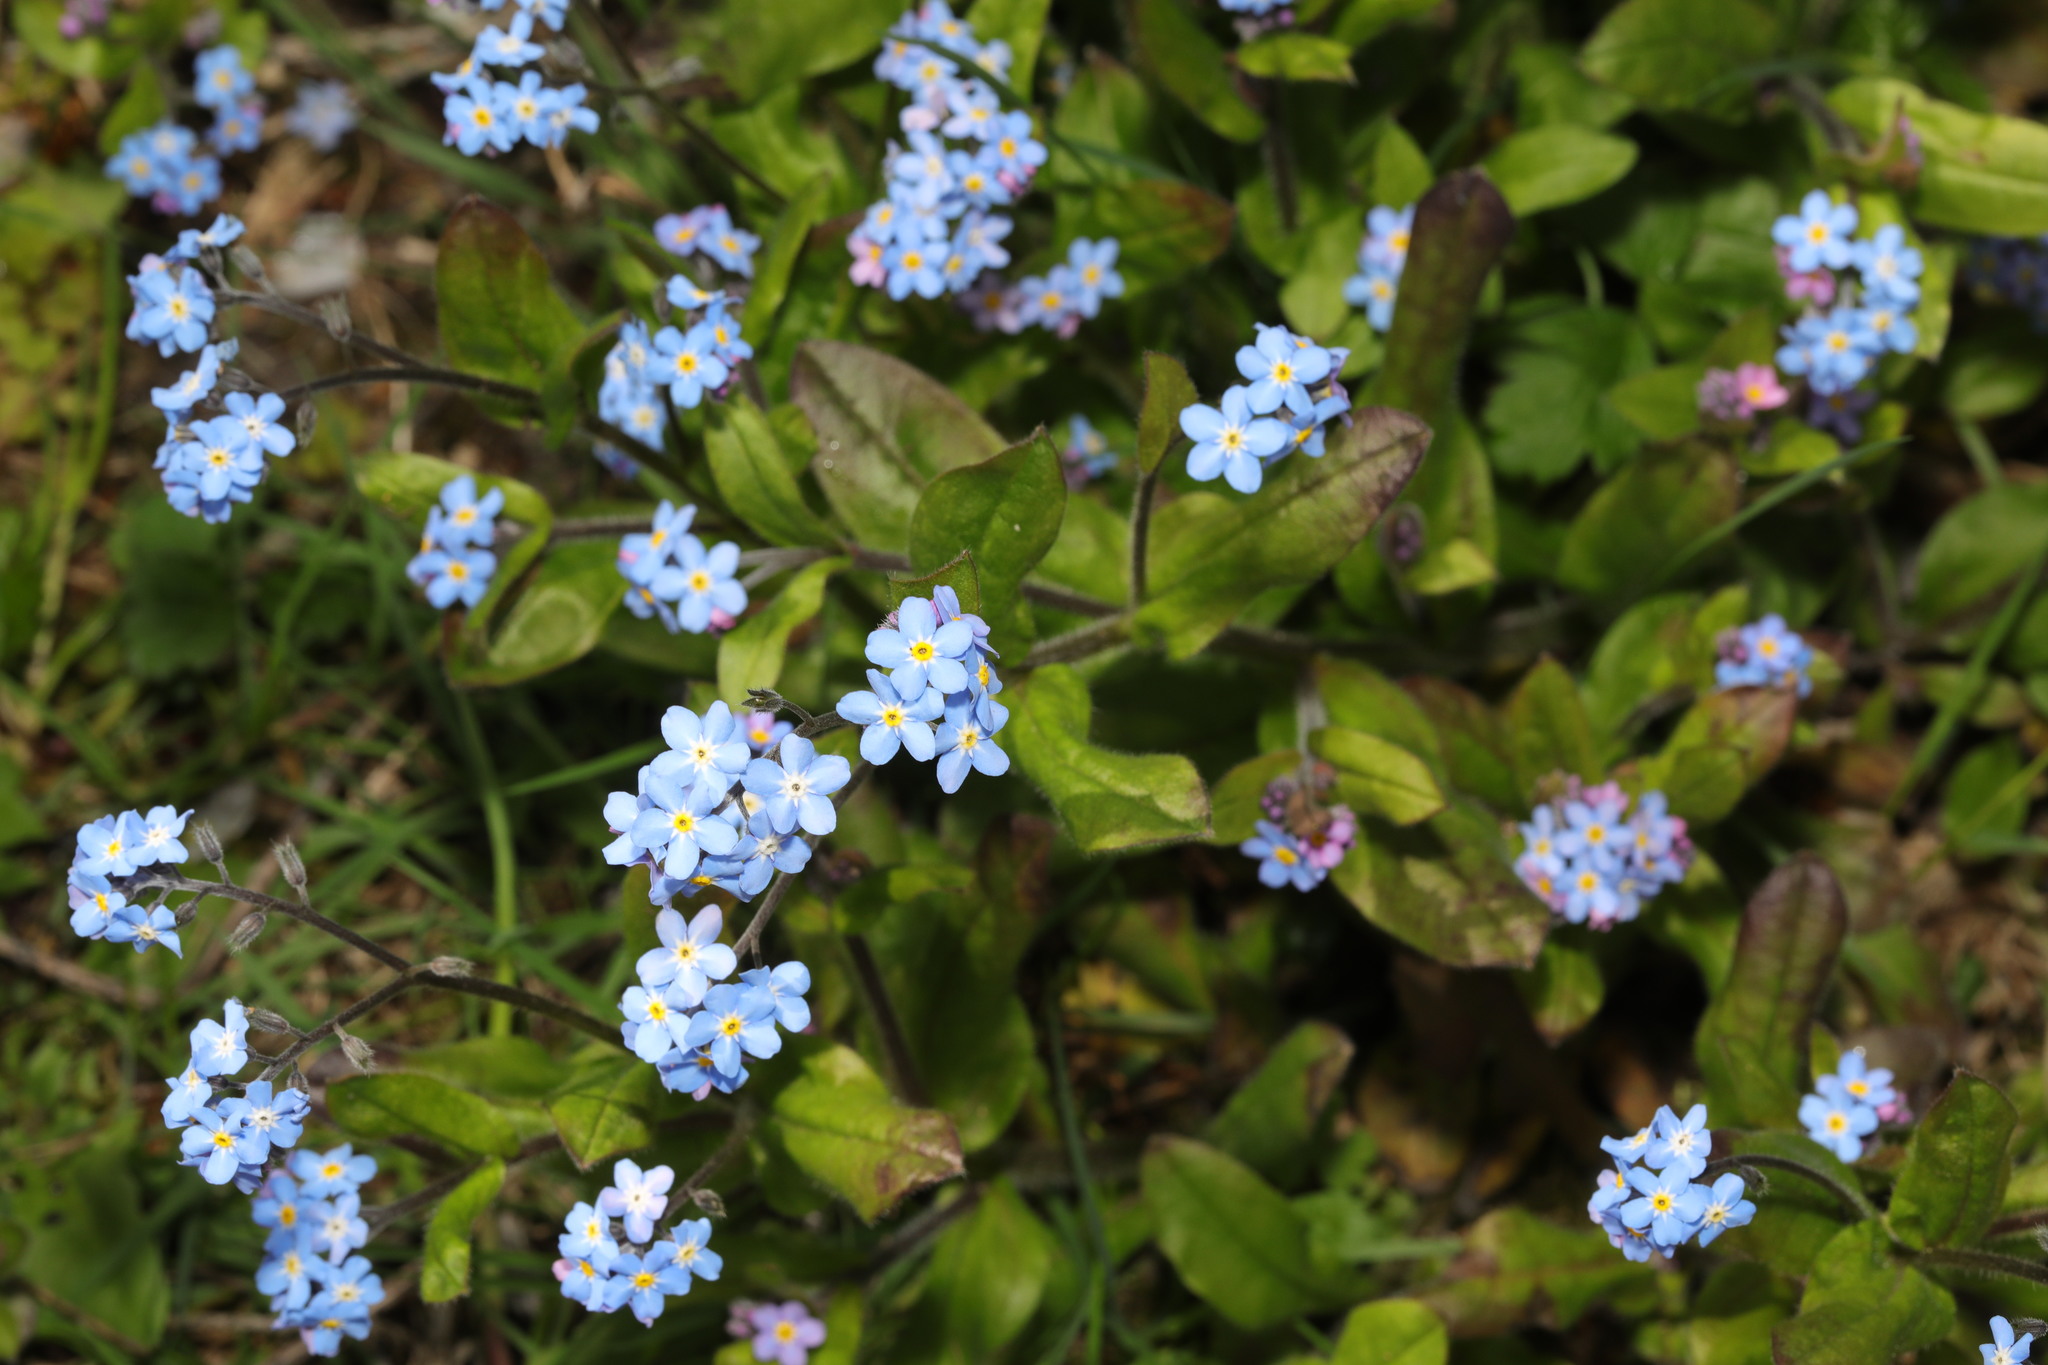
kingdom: Plantae
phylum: Tracheophyta
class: Magnoliopsida
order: Boraginales
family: Boraginaceae
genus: Myosotis
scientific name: Myosotis sylvatica
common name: Wood forget-me-not
